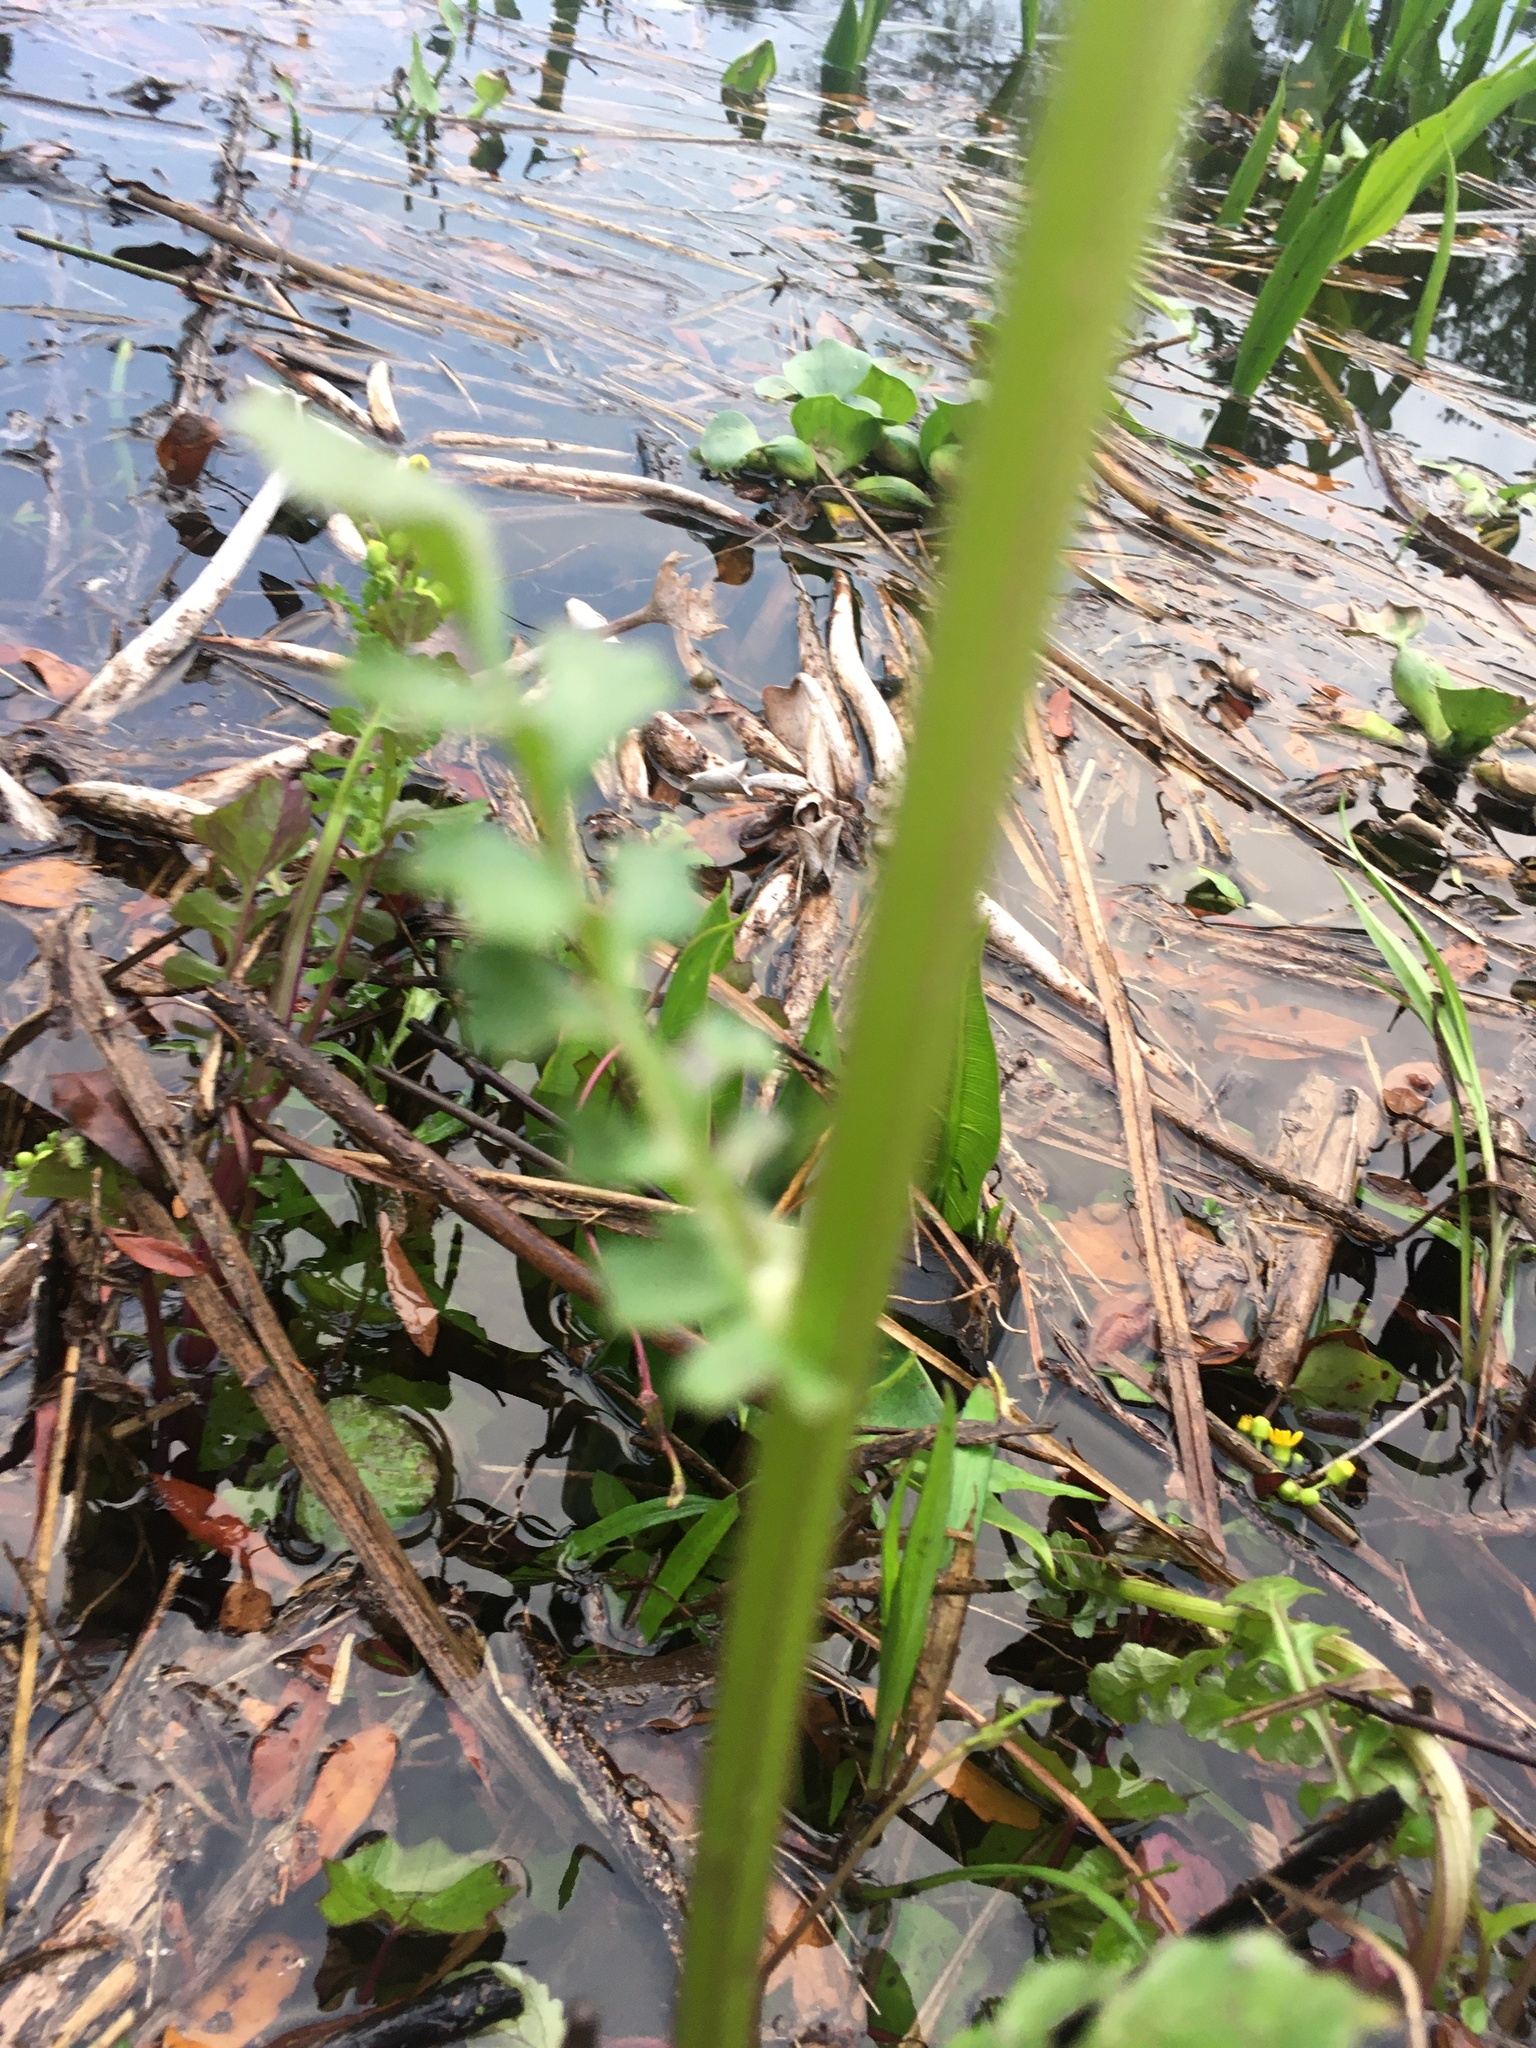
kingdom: Plantae
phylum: Tracheophyta
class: Magnoliopsida
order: Asterales
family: Asteraceae
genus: Packera
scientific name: Packera glabella
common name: Butterweed
